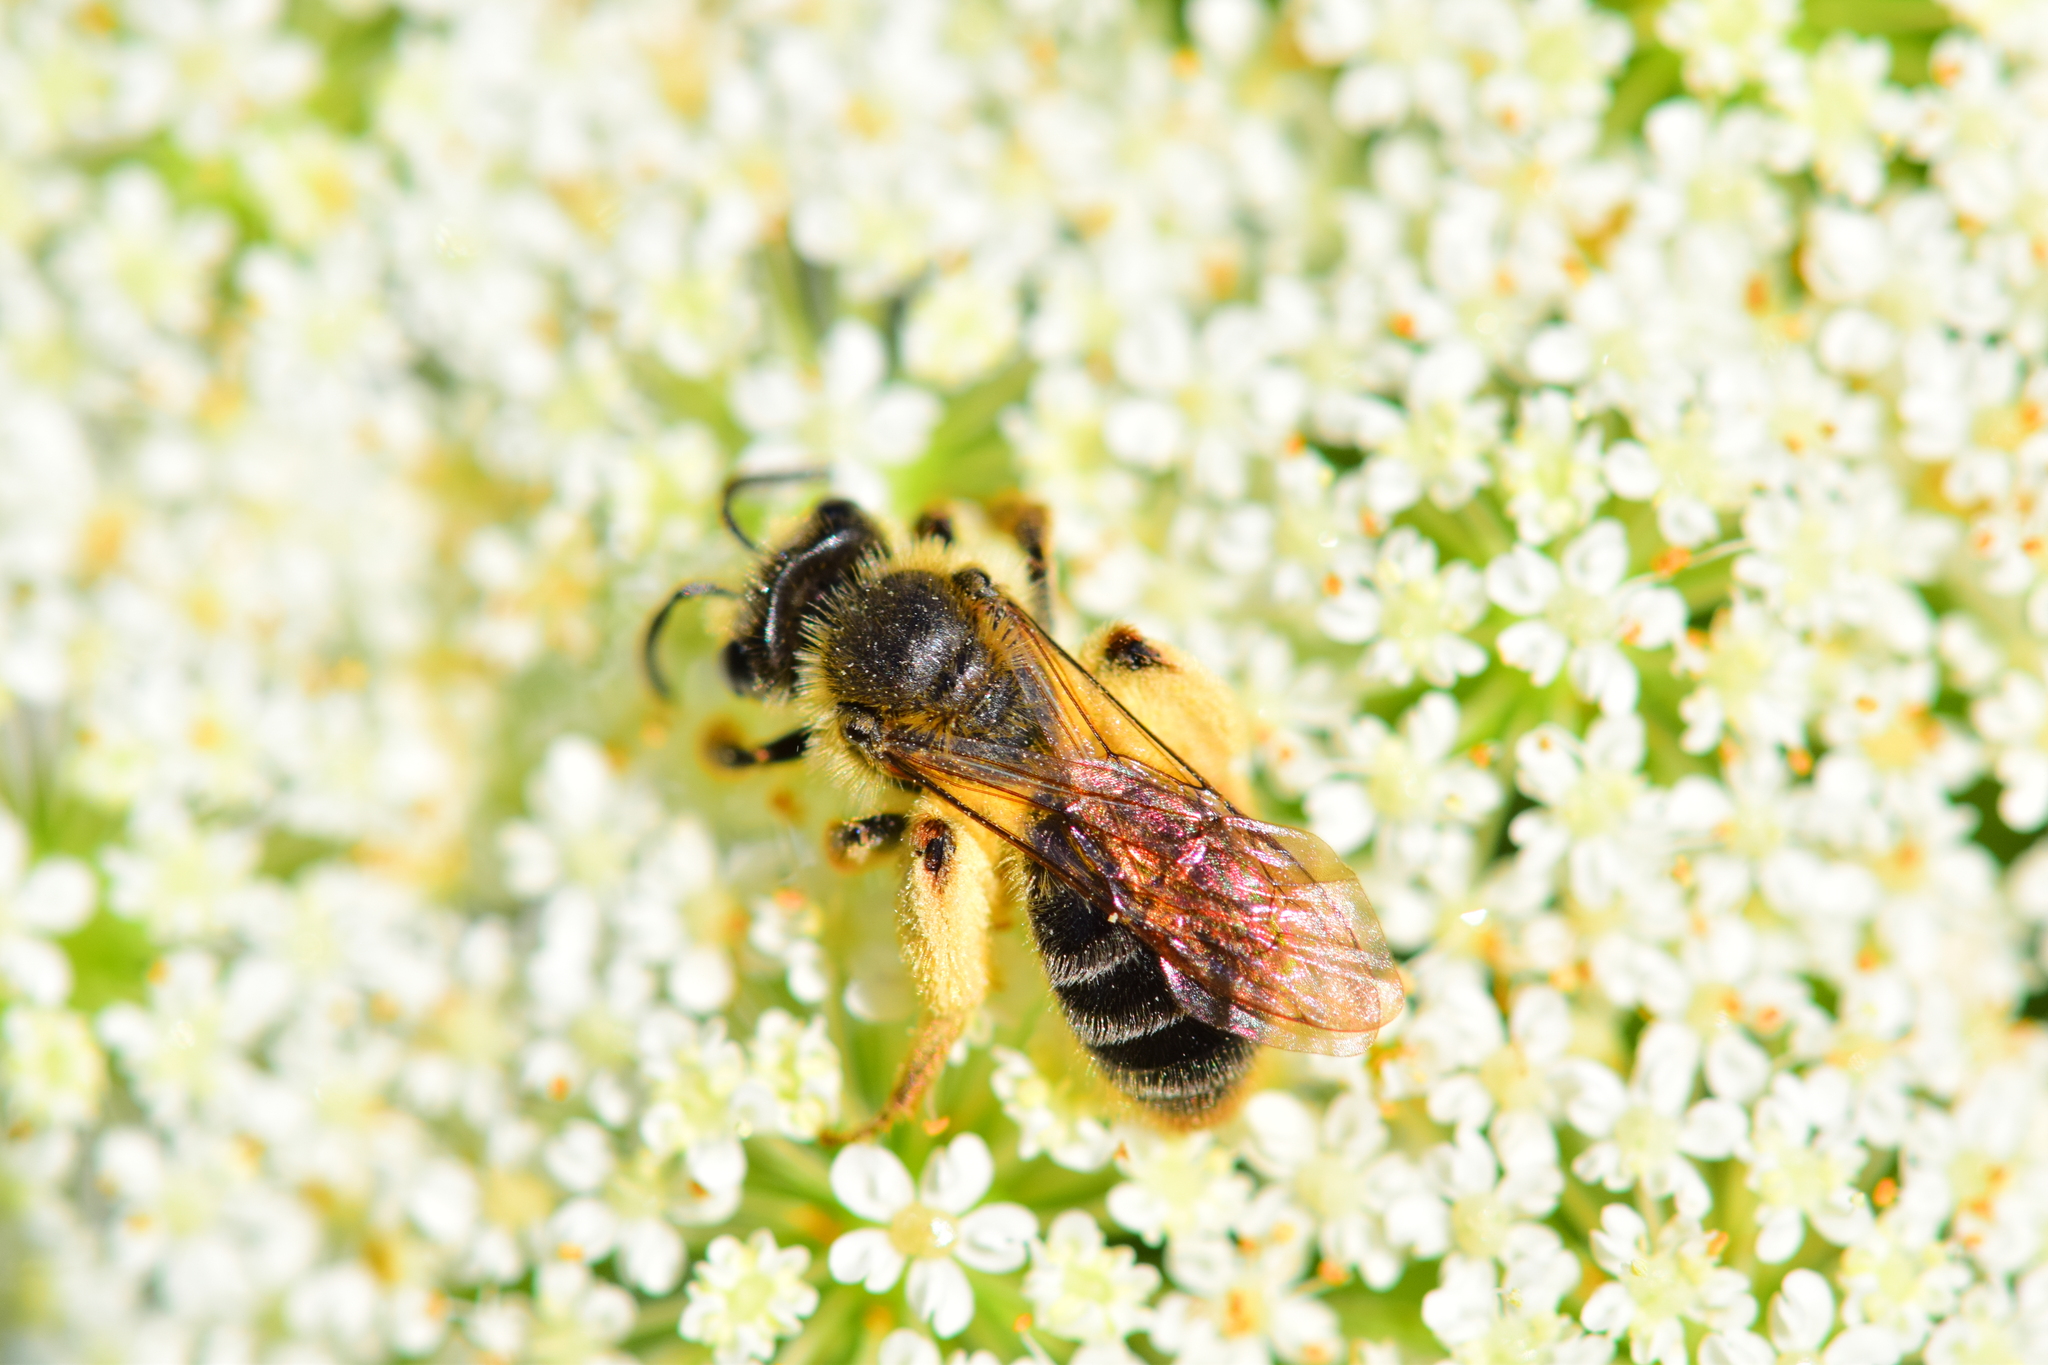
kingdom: Animalia
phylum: Arthropoda
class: Insecta
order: Hymenoptera
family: Andrenidae
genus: Andrena
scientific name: Andrena thaspii
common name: Parsnip miner bee
